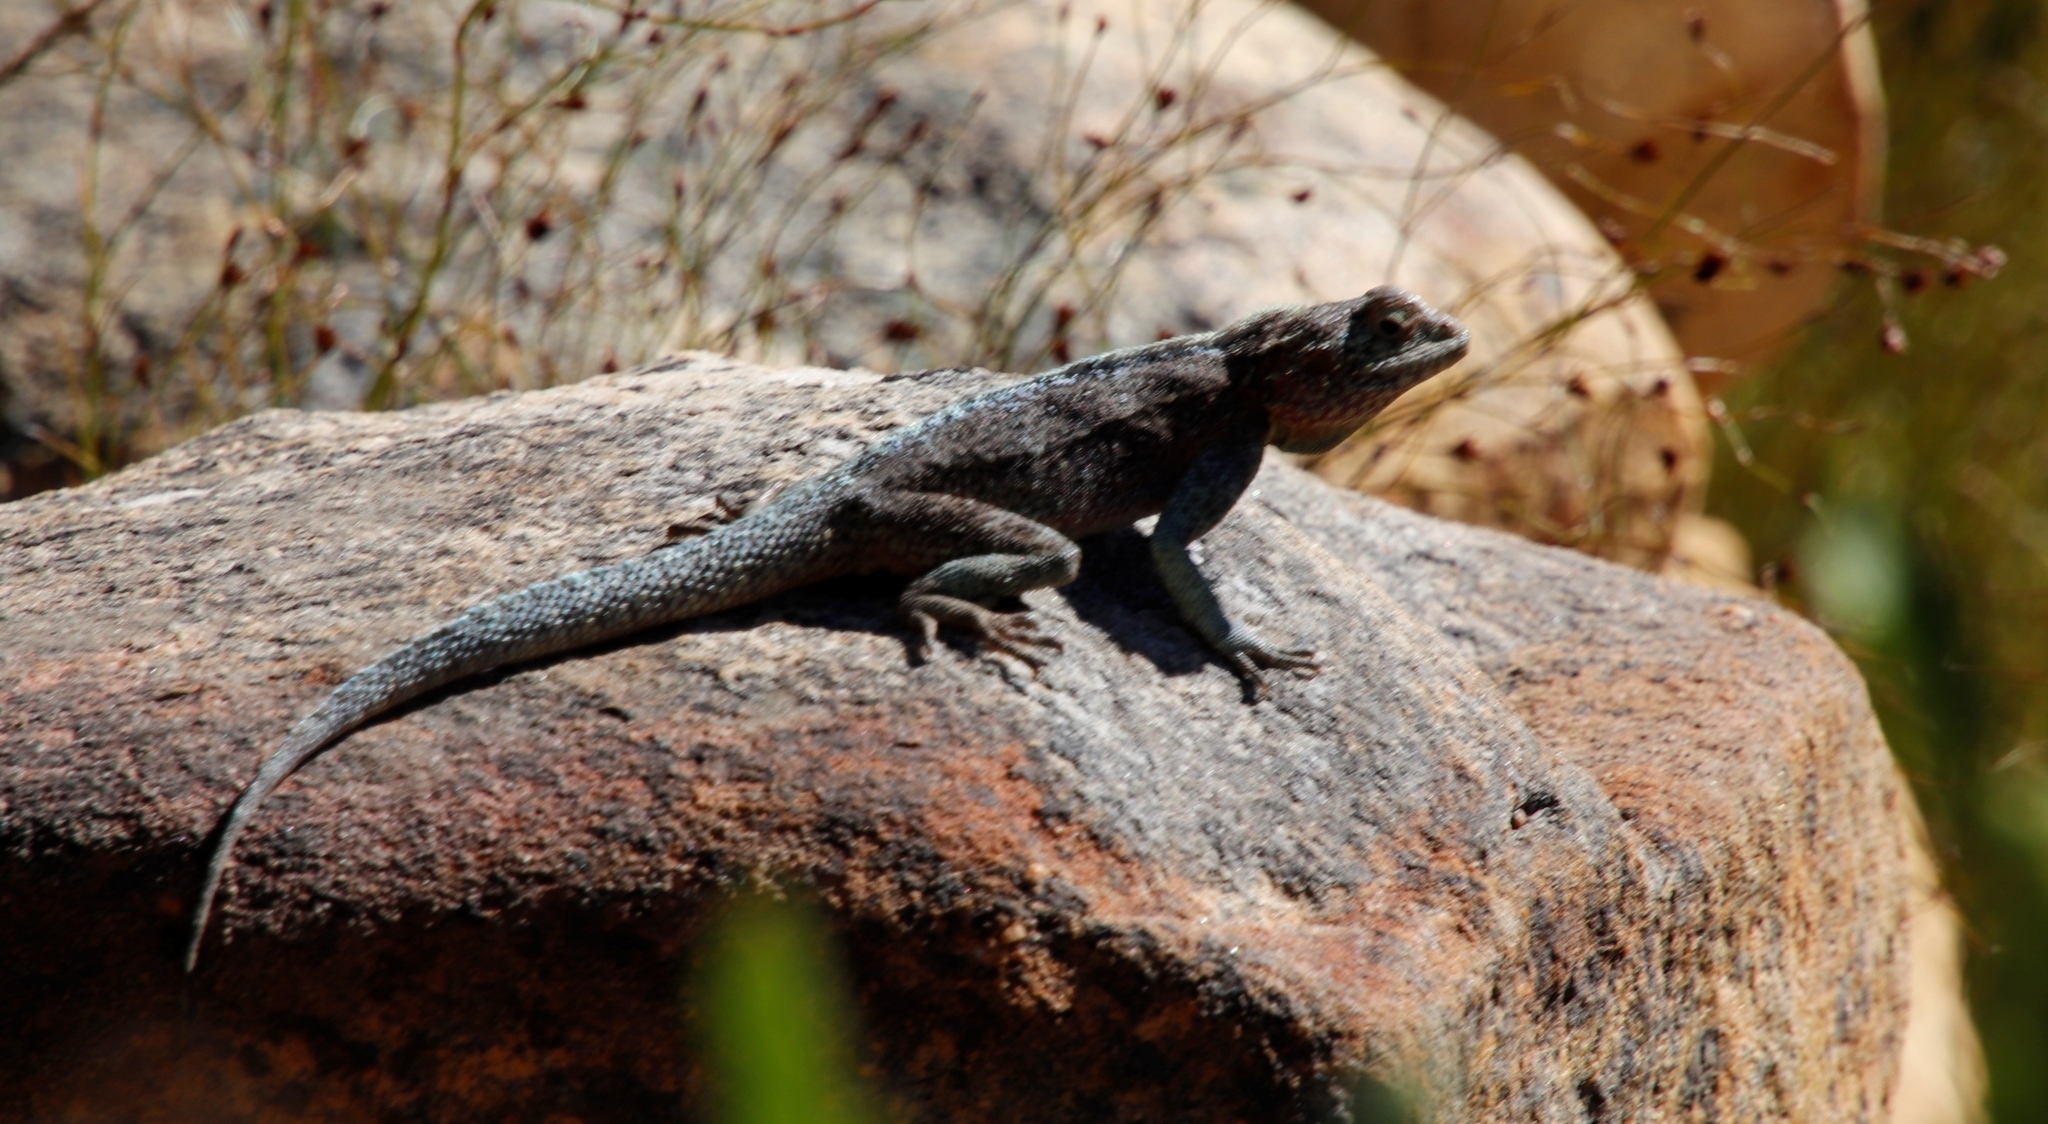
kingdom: Animalia
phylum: Chordata
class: Squamata
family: Agamidae
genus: Agama
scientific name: Agama atra
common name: Southern african rock agama
